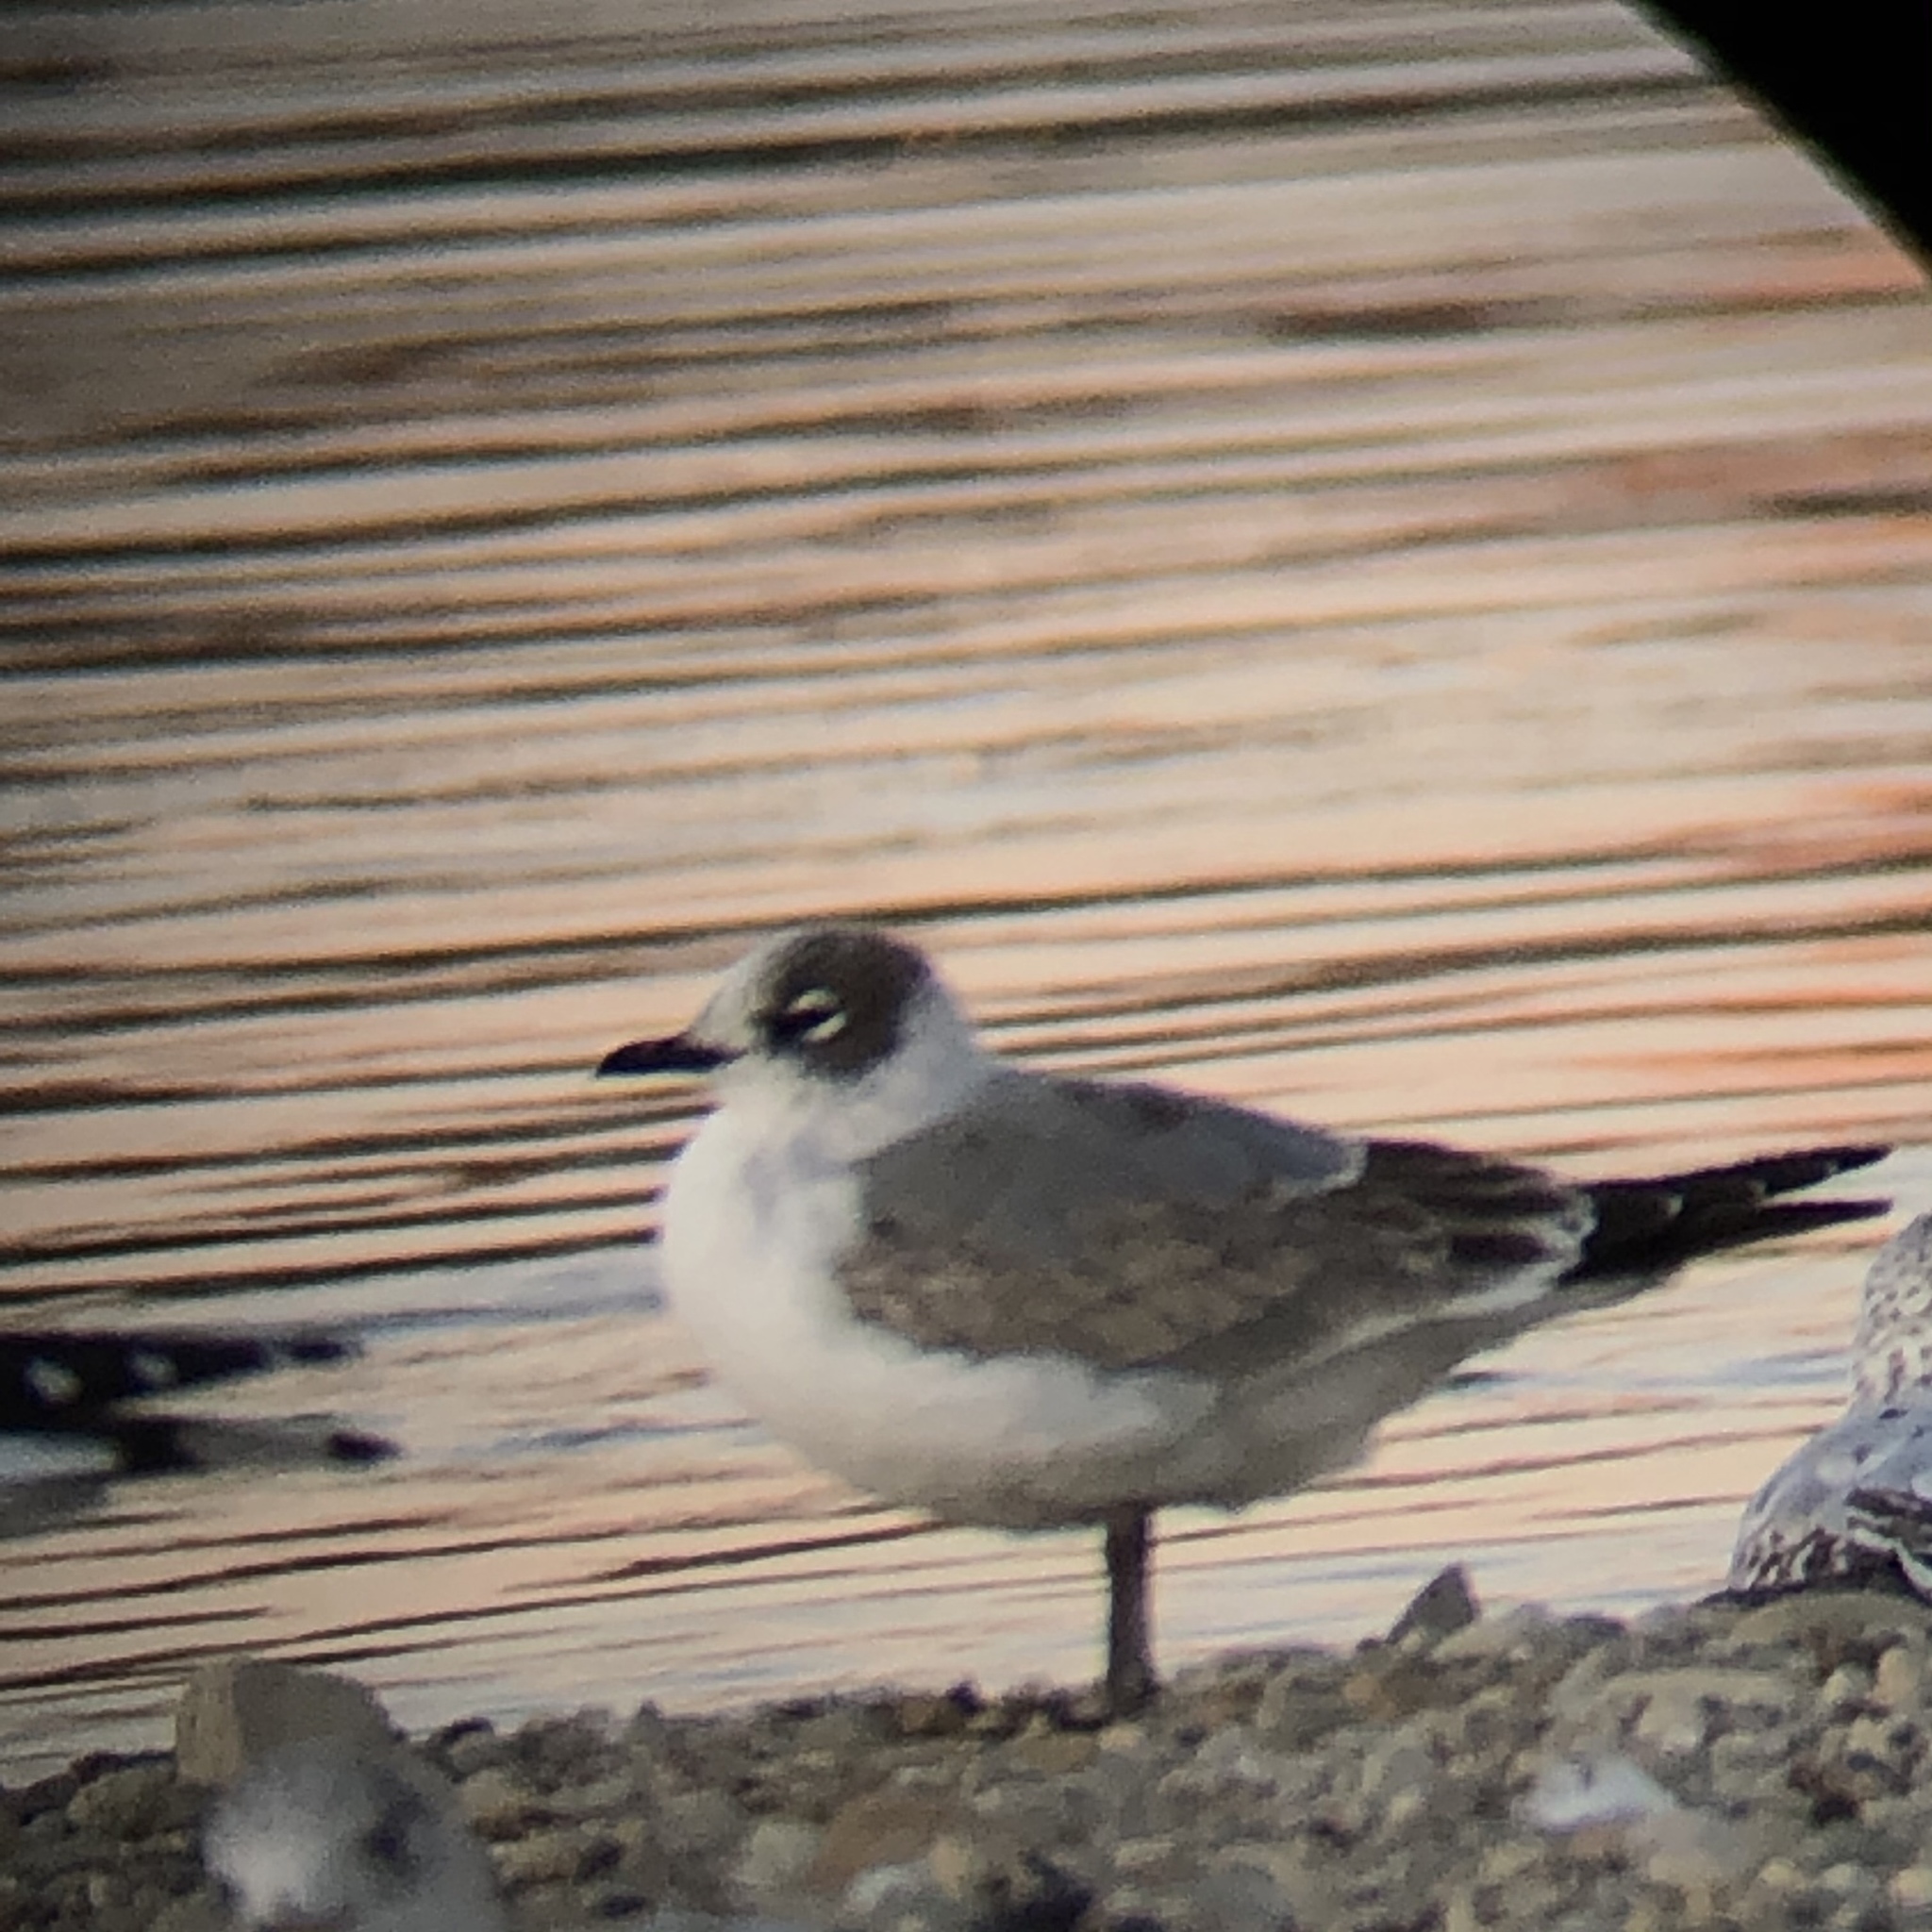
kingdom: Animalia
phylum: Chordata
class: Aves
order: Charadriiformes
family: Laridae
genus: Leucophaeus
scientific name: Leucophaeus pipixcan
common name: Franklin's gull
